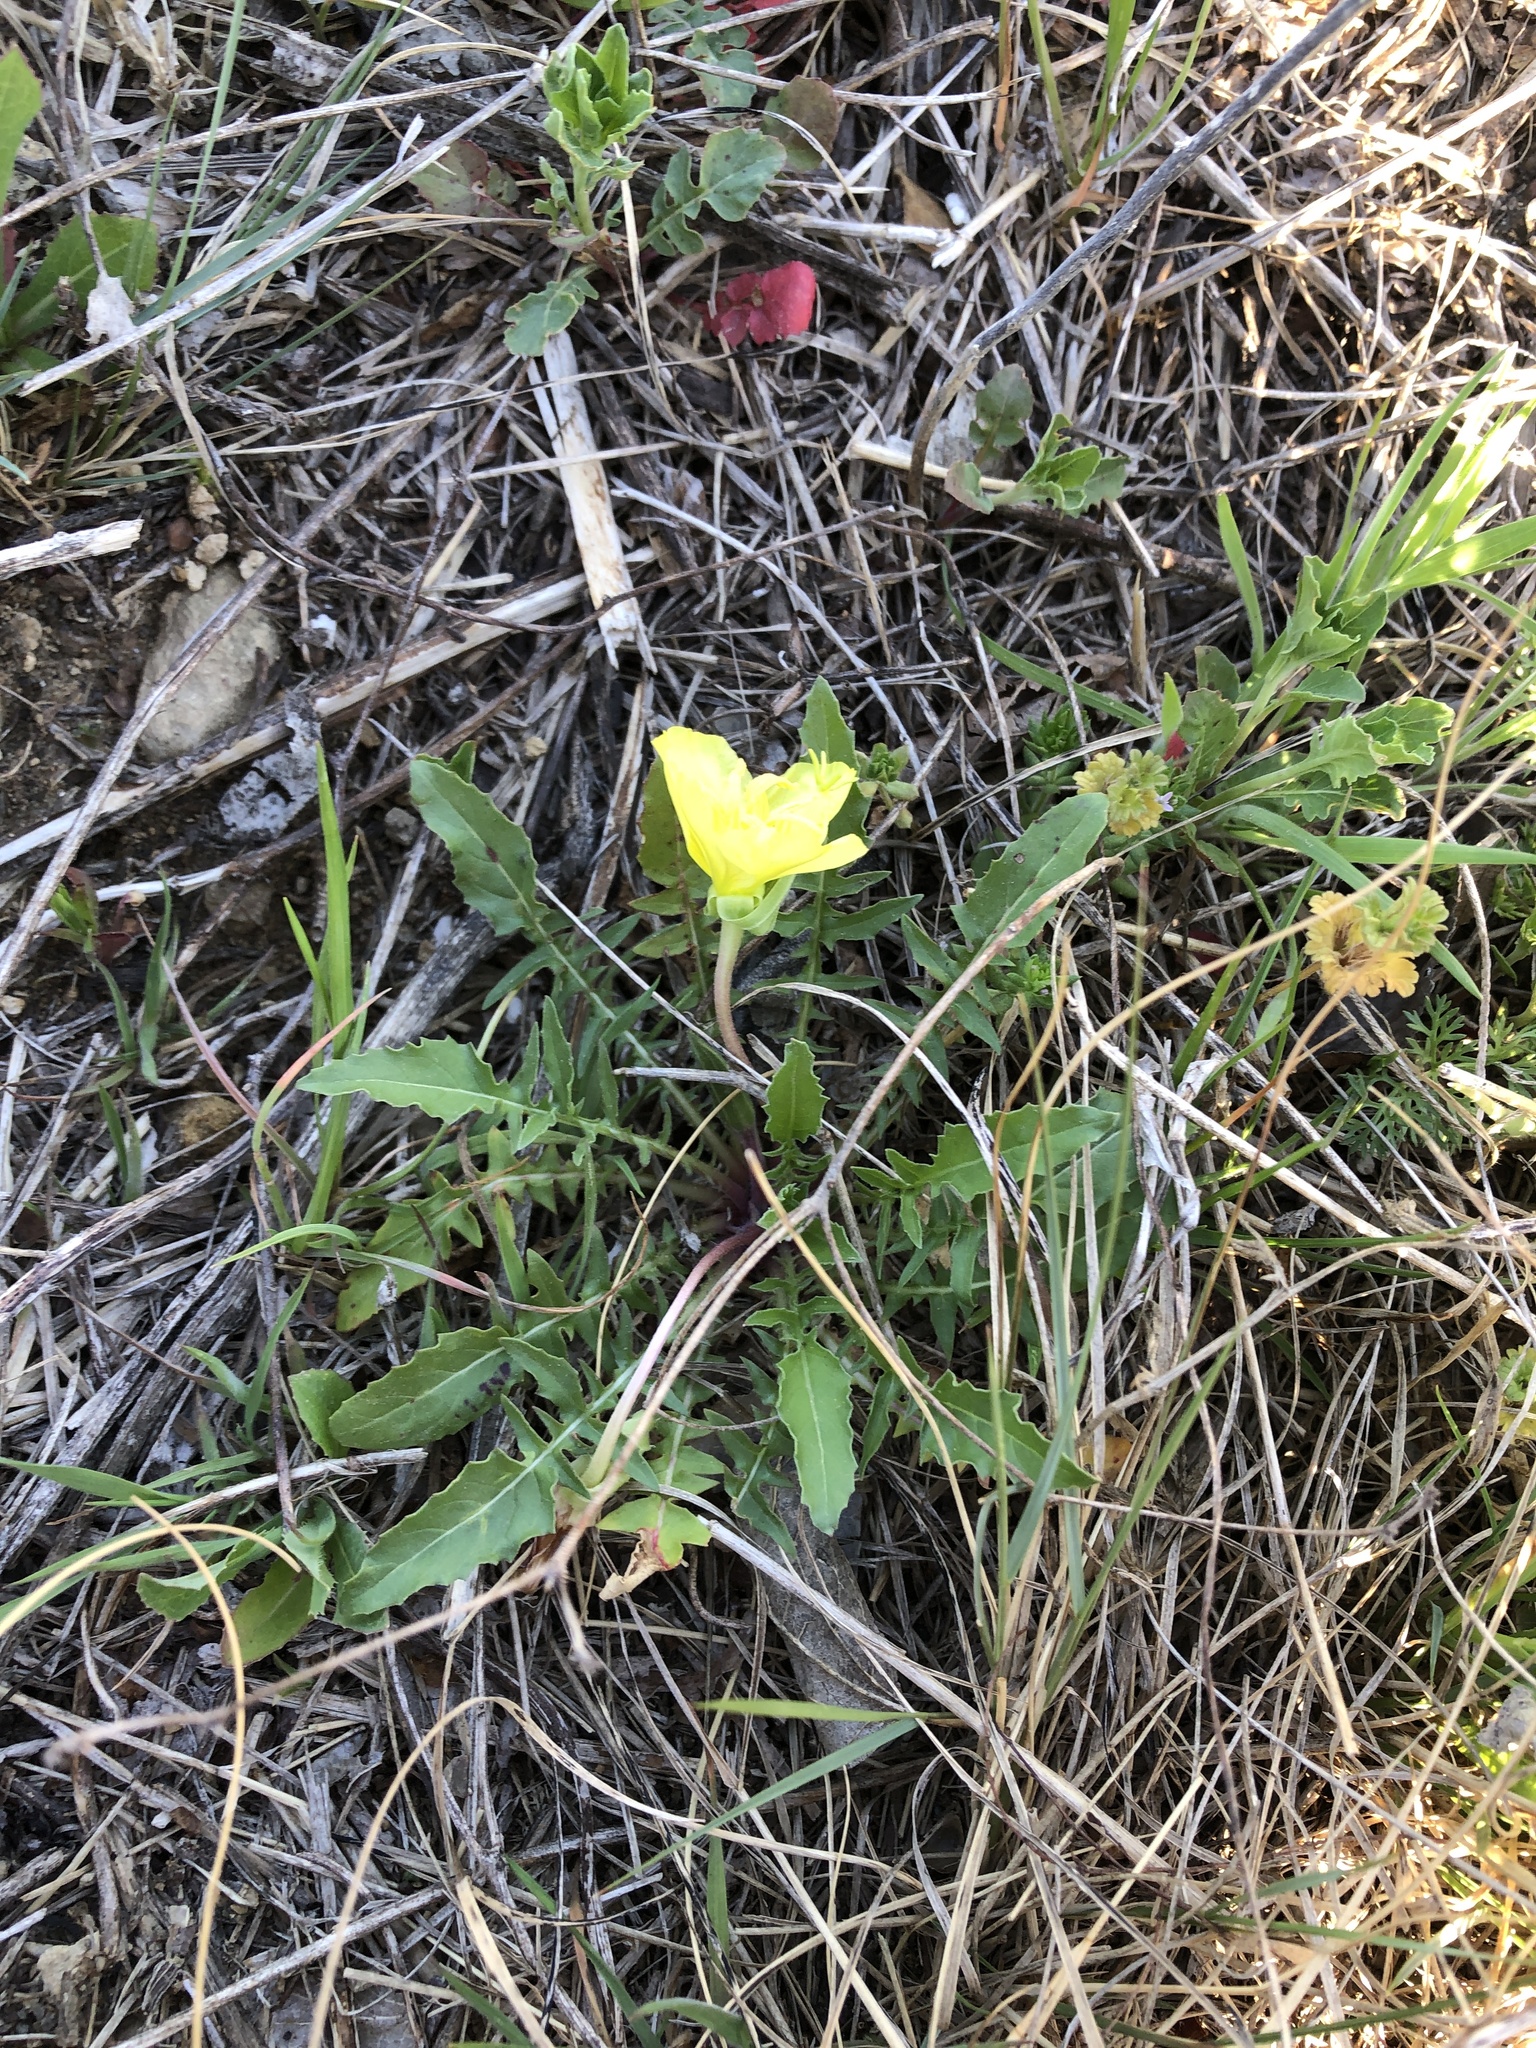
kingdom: Plantae
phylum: Tracheophyta
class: Magnoliopsida
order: Myrtales
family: Onagraceae
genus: Oenothera
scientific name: Oenothera triloba
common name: Sessile evening-primrose
